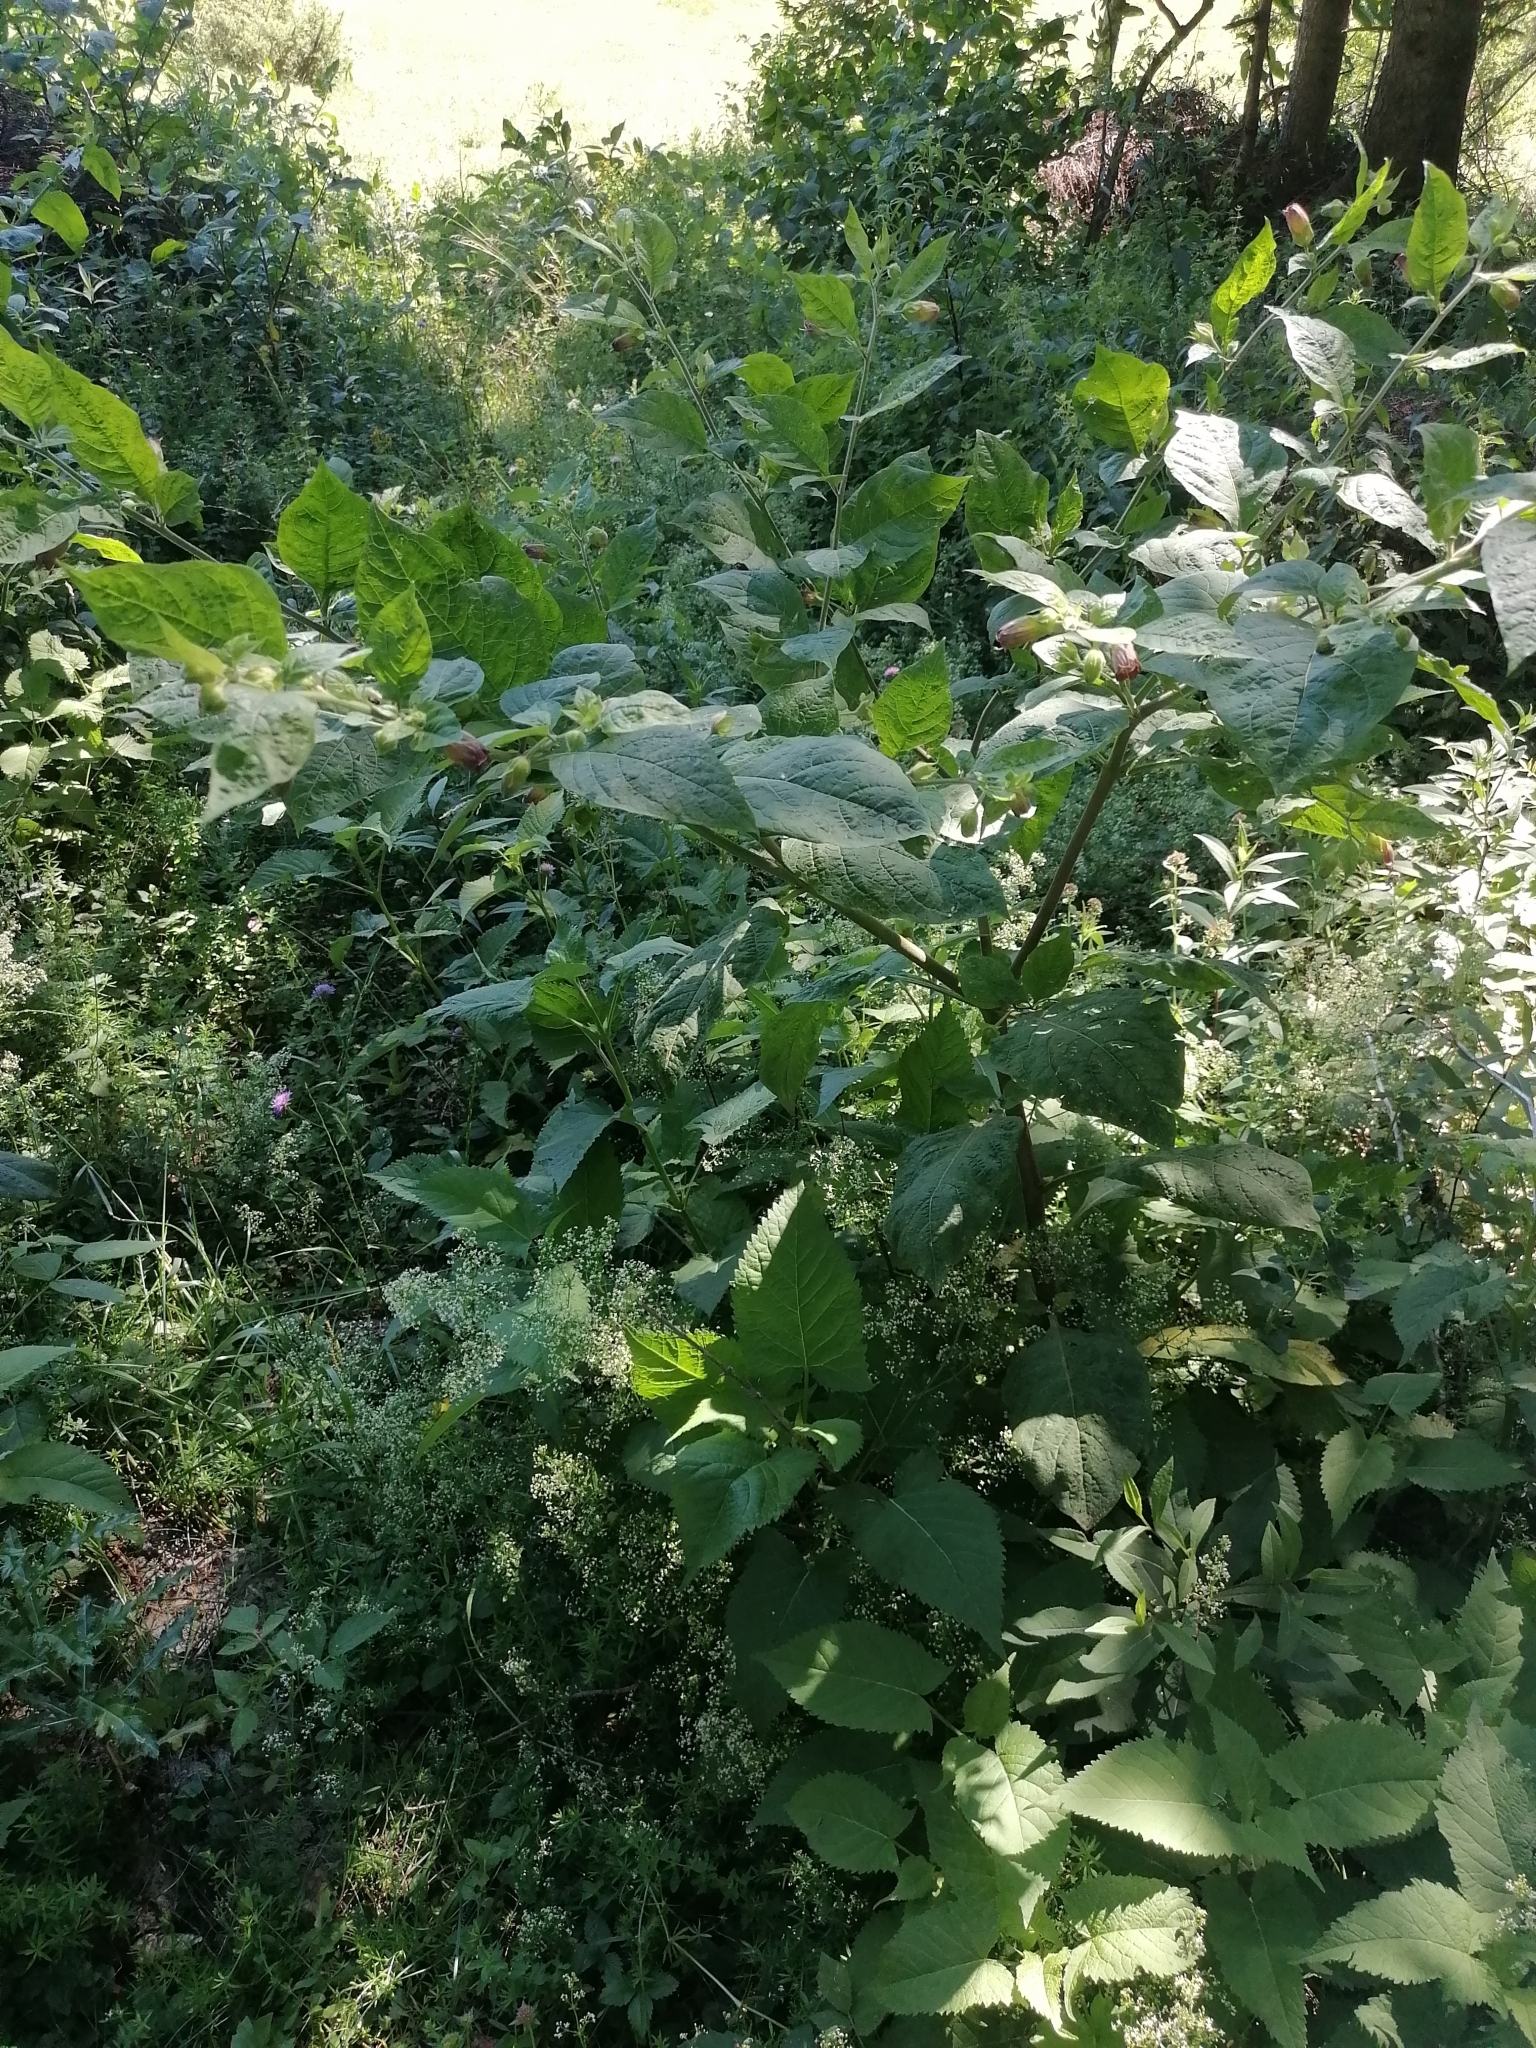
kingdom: Plantae
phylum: Tracheophyta
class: Magnoliopsida
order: Solanales
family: Solanaceae
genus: Atropa
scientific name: Atropa belladonna
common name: Deadly nightshade
